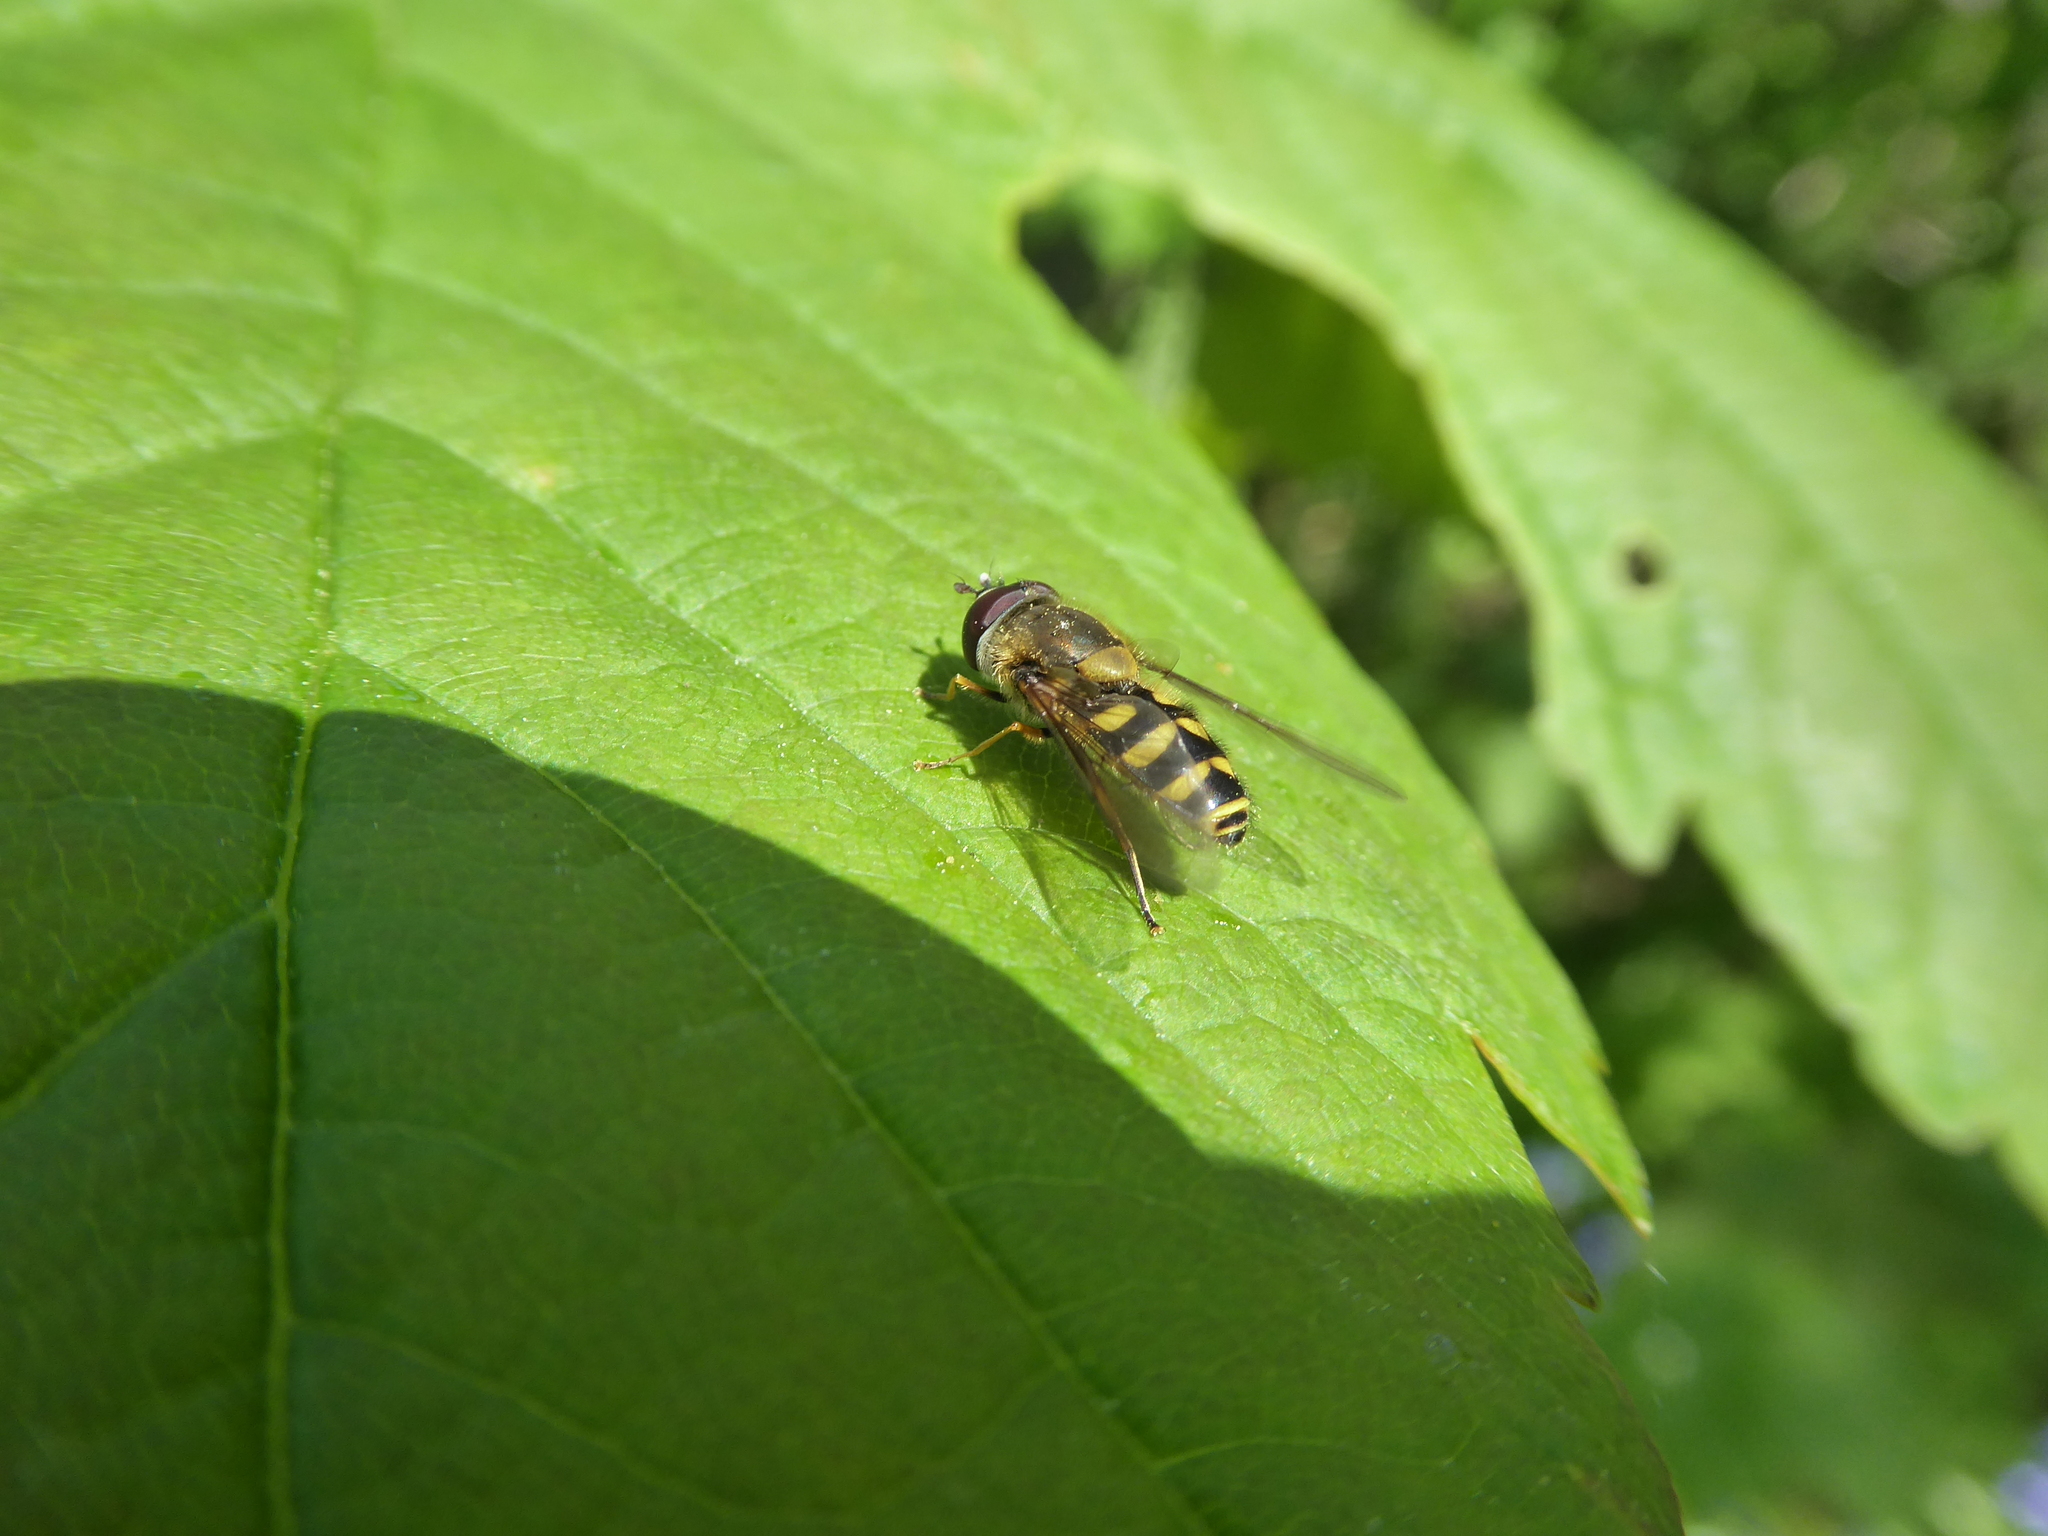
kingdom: Animalia
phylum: Arthropoda
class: Insecta
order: Diptera
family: Syrphidae
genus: Syrphus
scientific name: Syrphus
